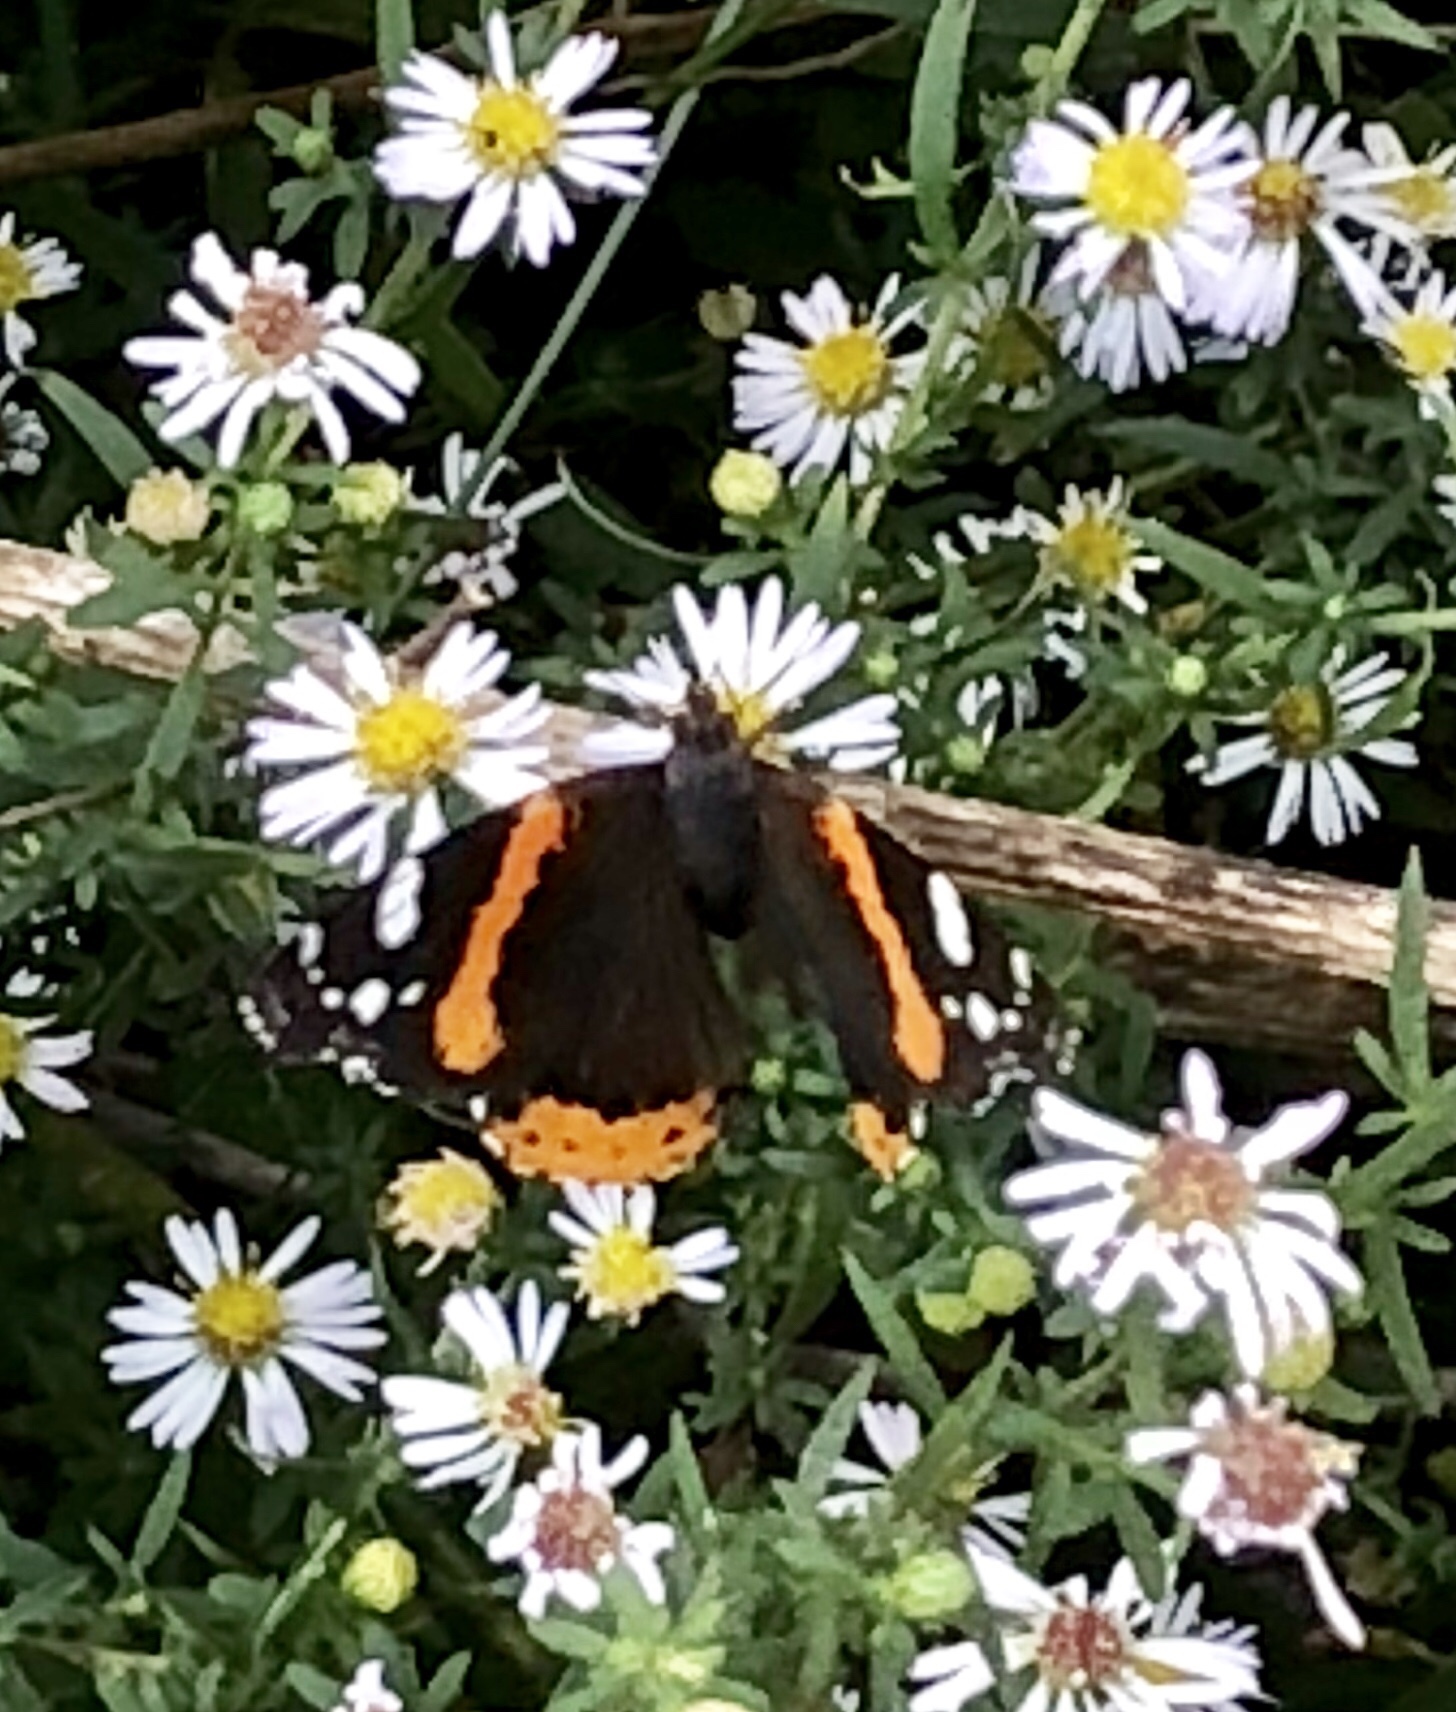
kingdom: Animalia
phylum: Arthropoda
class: Insecta
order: Lepidoptera
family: Nymphalidae
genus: Vanessa
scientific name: Vanessa atalanta
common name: Red admiral
